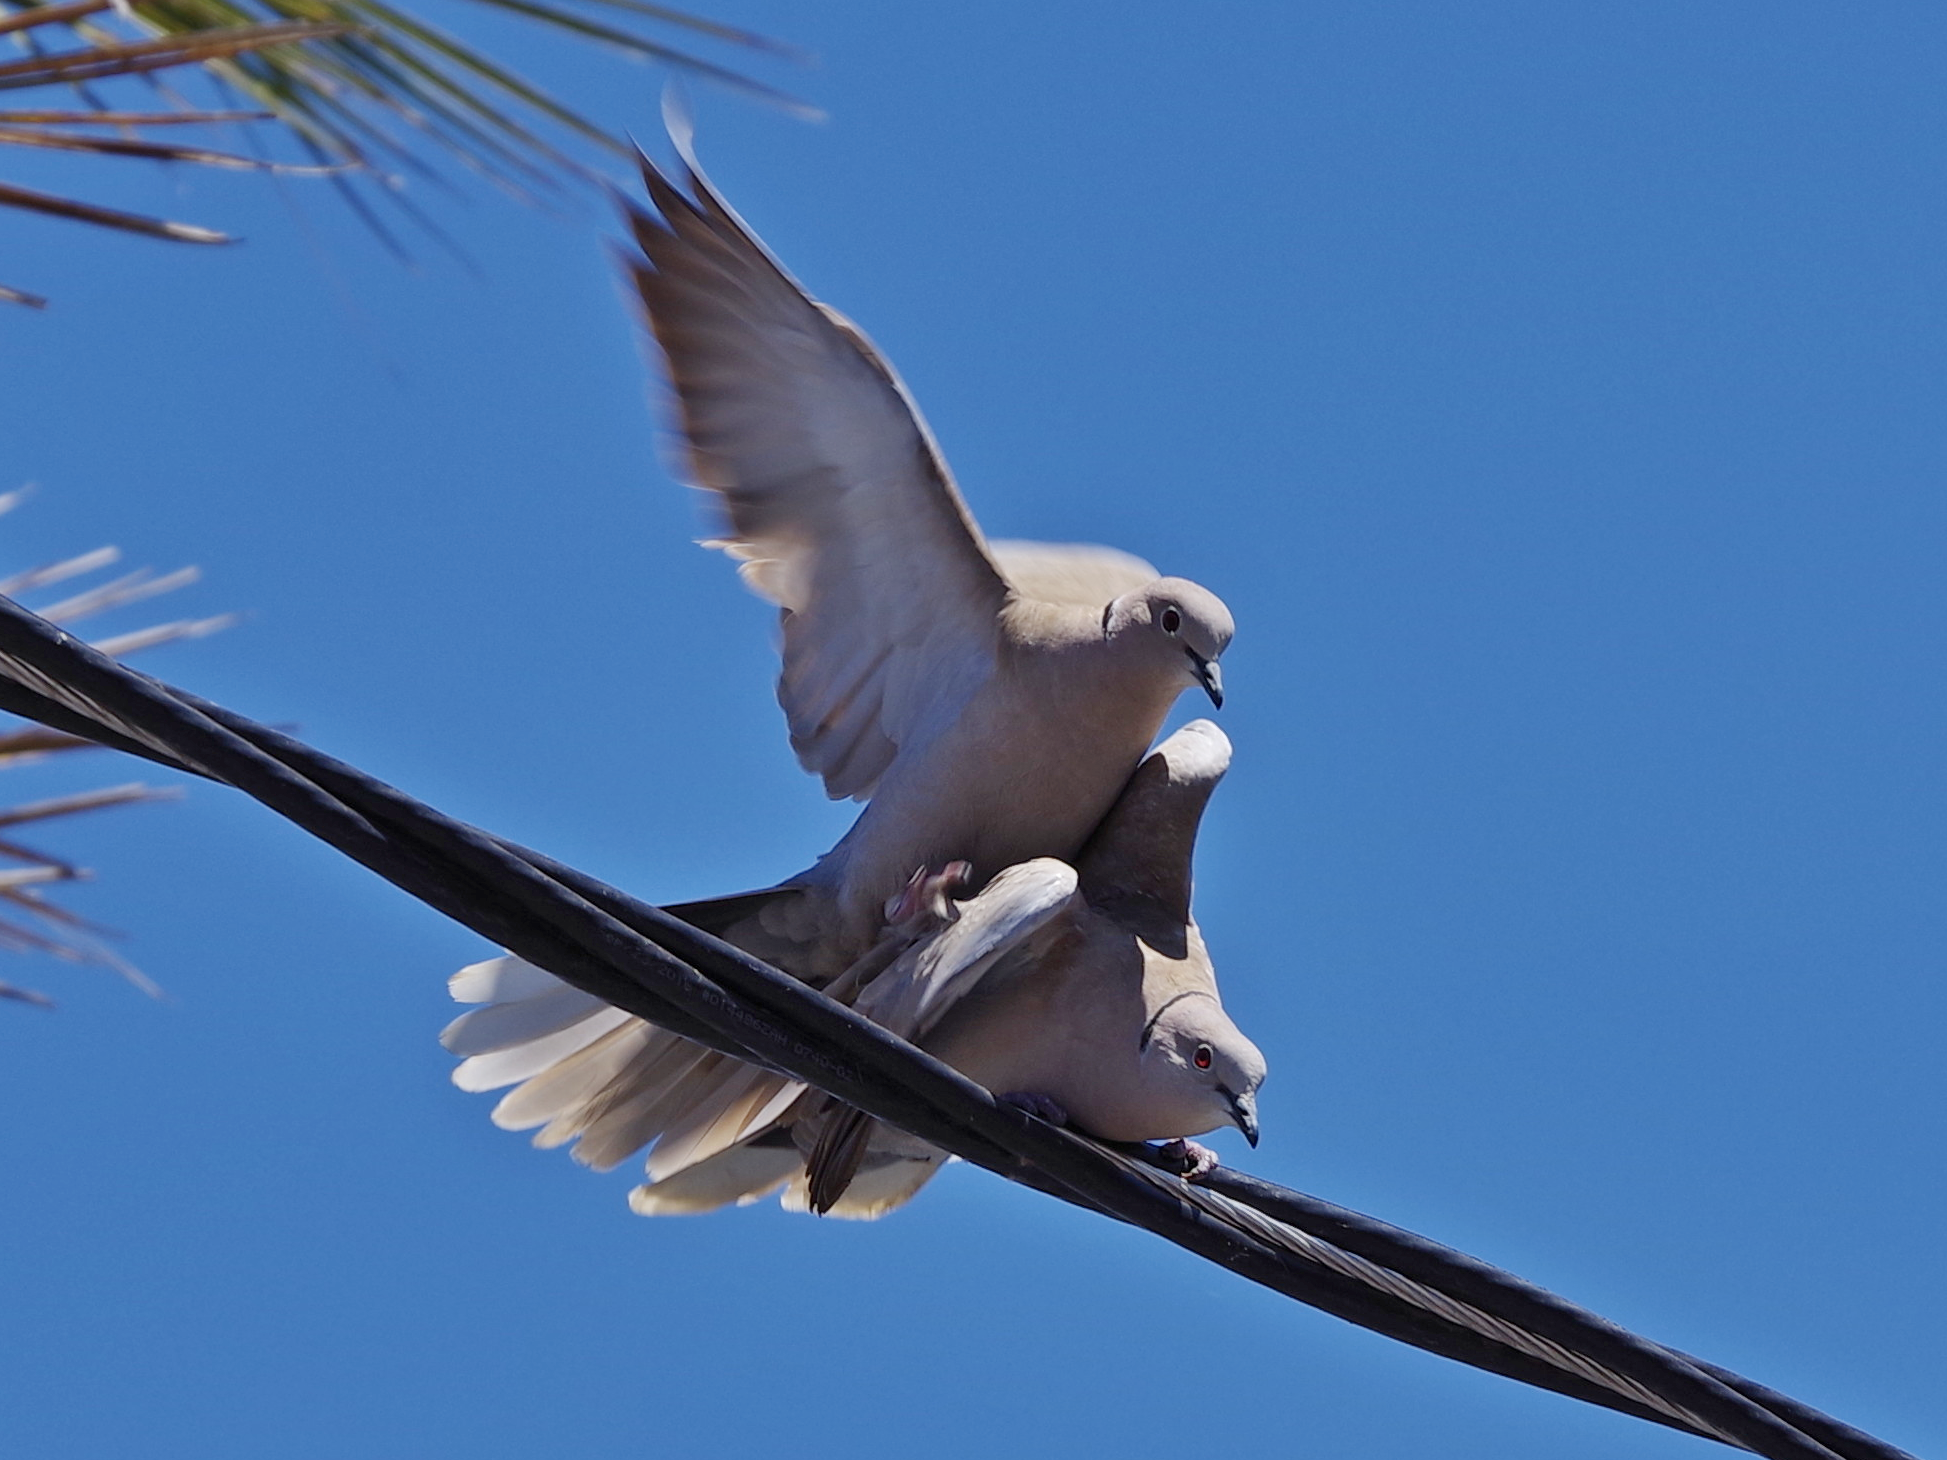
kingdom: Animalia
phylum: Chordata
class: Aves
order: Columbiformes
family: Columbidae
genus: Streptopelia
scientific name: Streptopelia decaocto
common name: Eurasian collared dove
